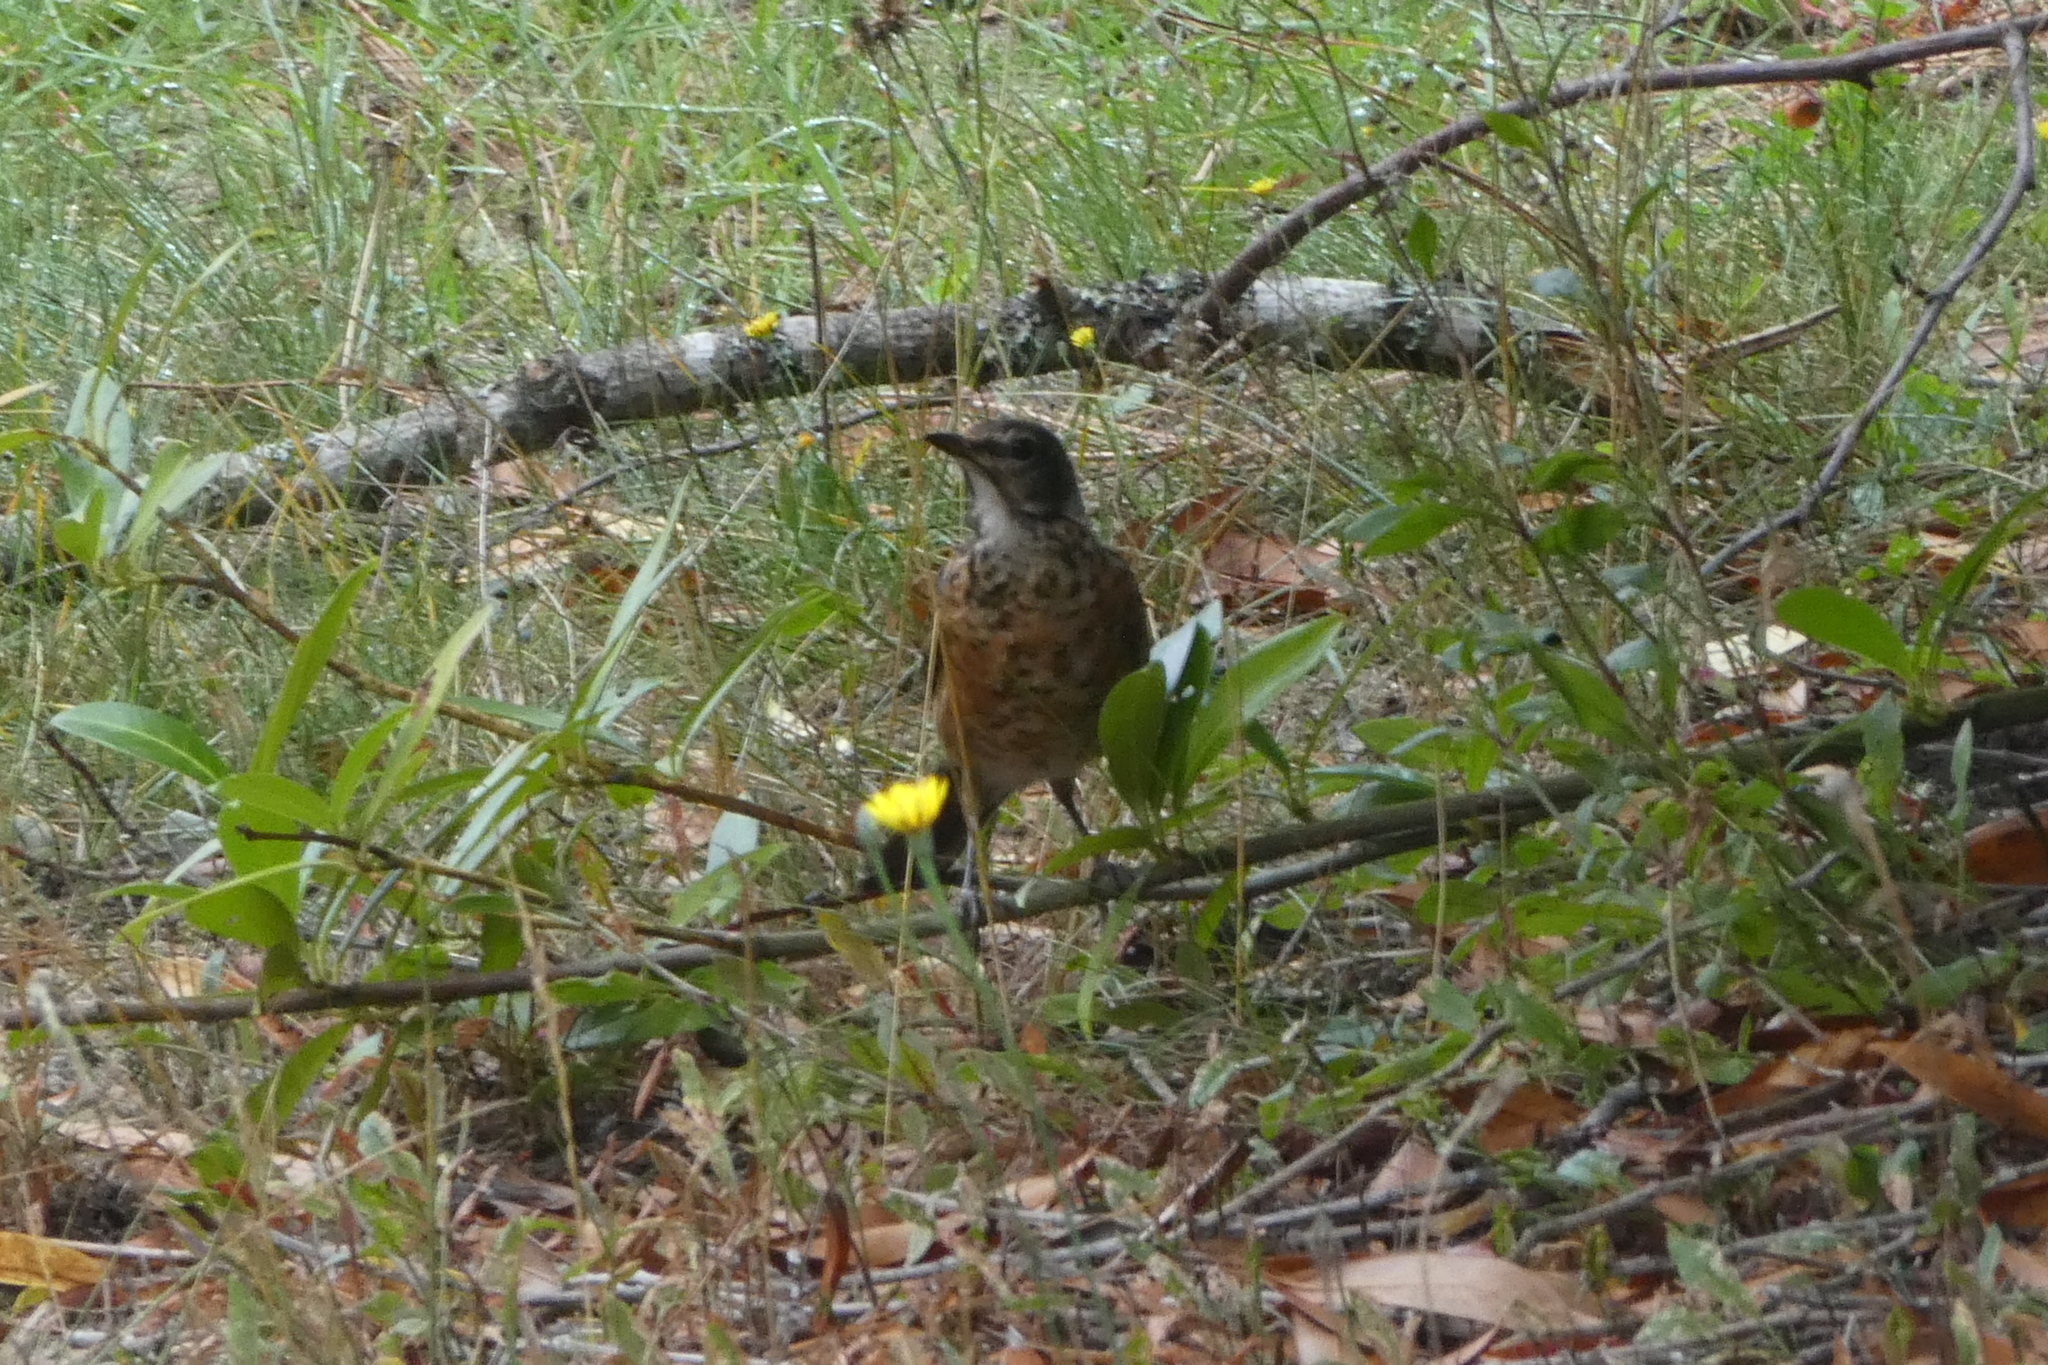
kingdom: Animalia
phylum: Chordata
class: Aves
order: Passeriformes
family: Turdidae
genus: Turdus
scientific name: Turdus migratorius
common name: American robin
